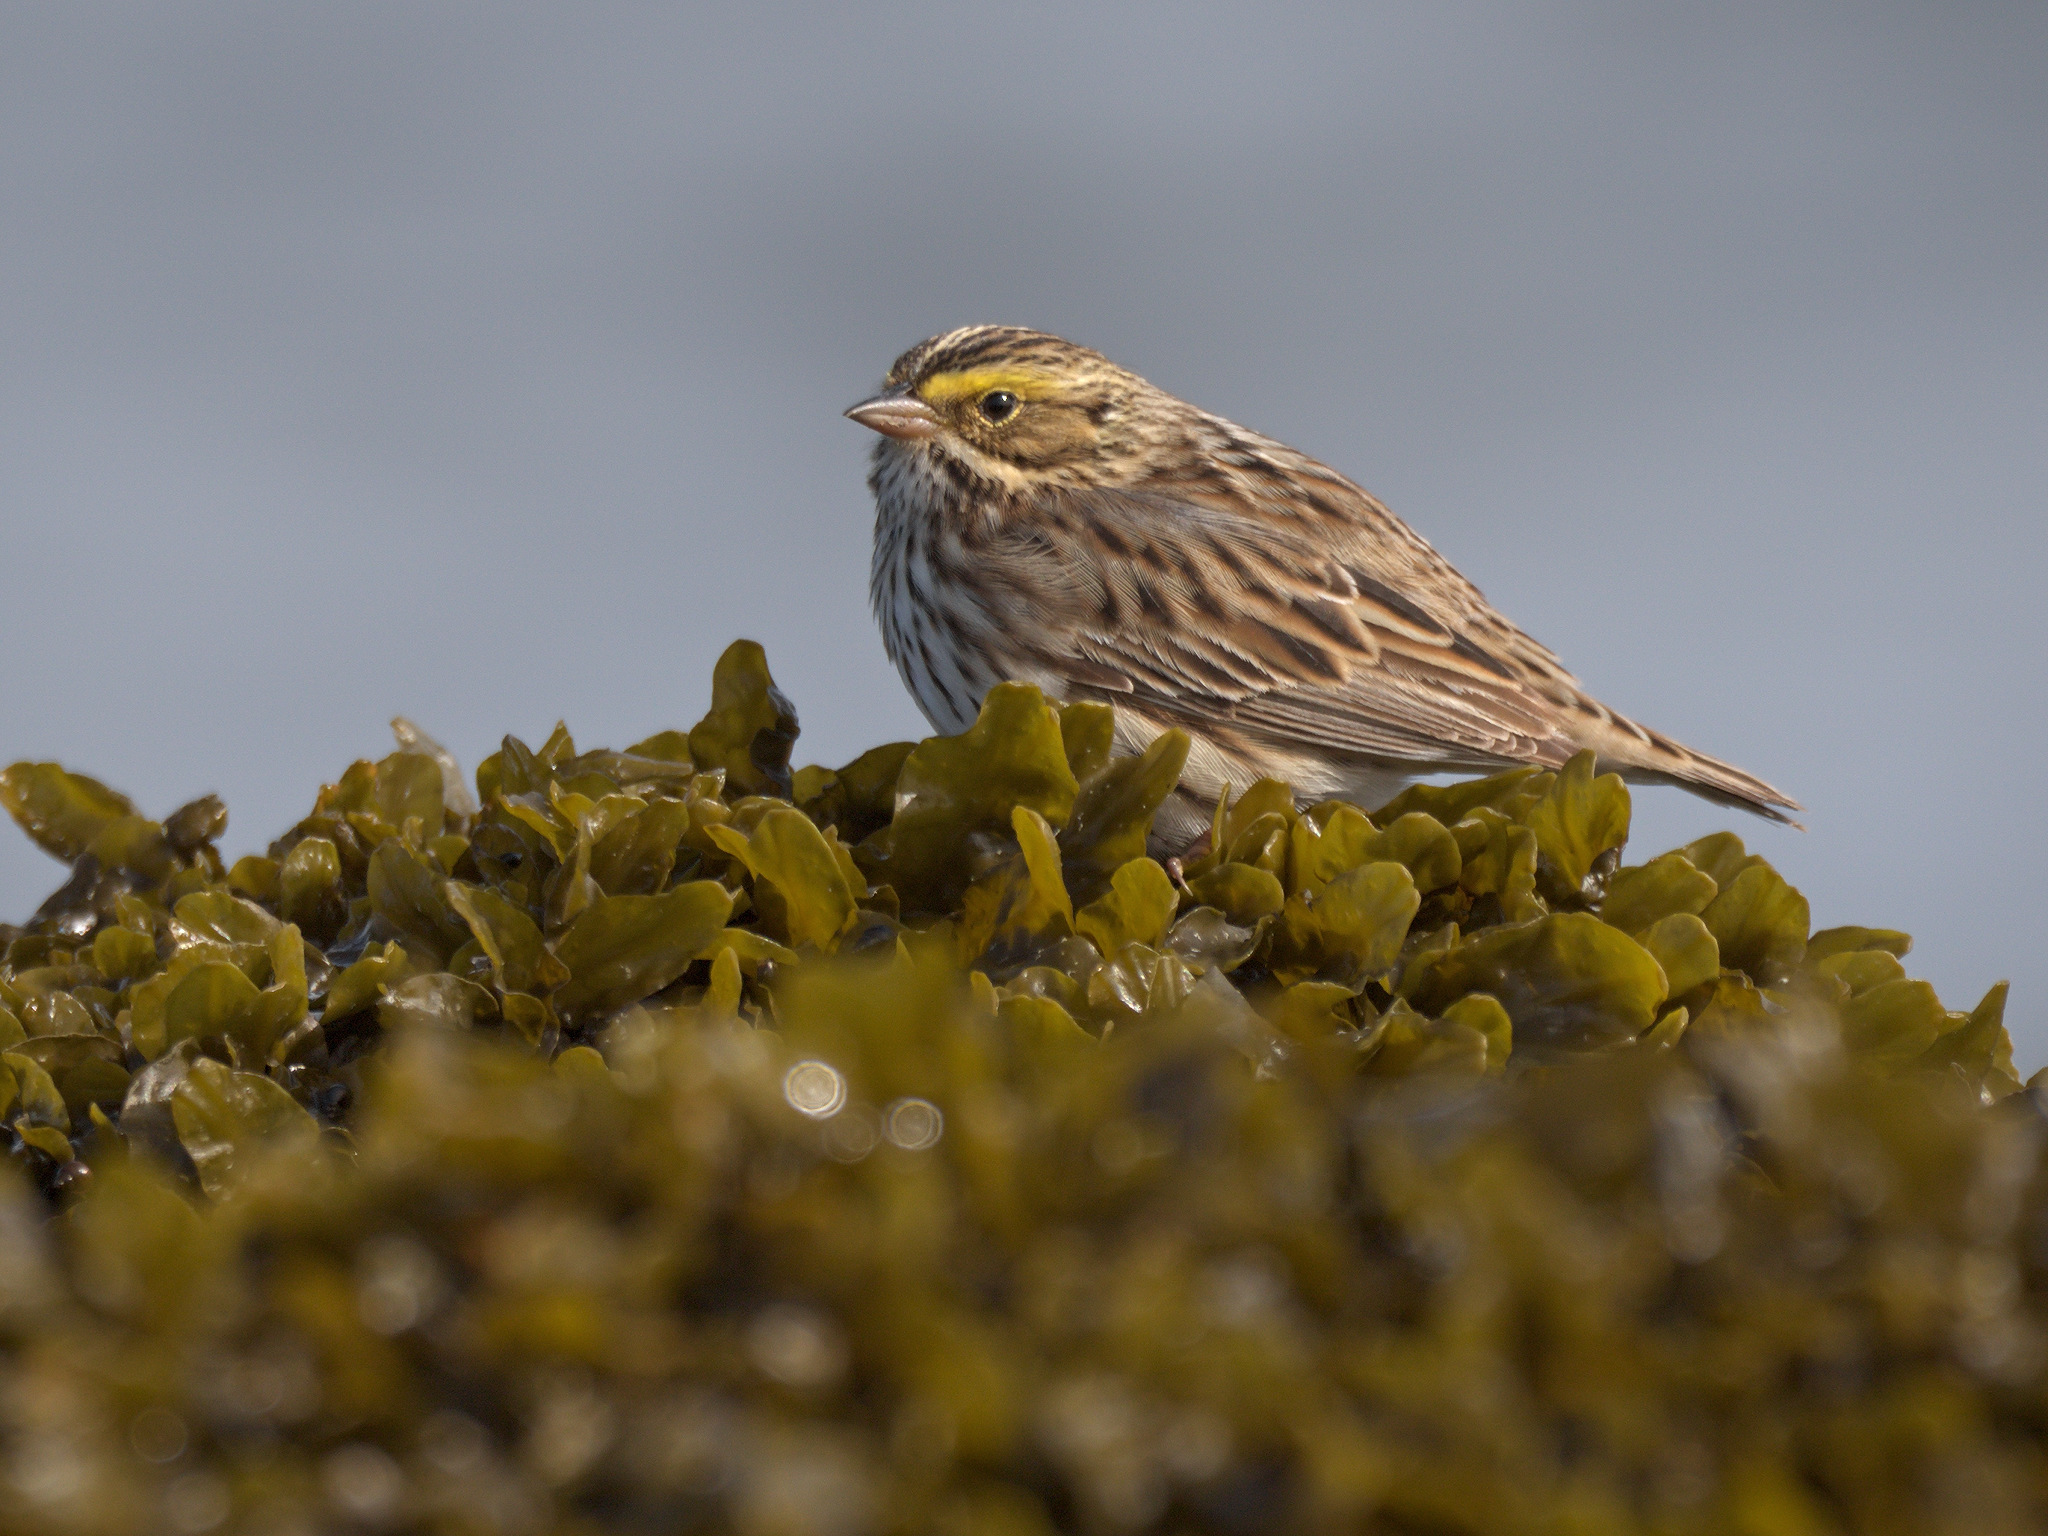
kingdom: Animalia
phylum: Chordata
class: Aves
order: Passeriformes
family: Passerellidae
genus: Passerculus
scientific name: Passerculus sandwichensis
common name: Savannah sparrow
